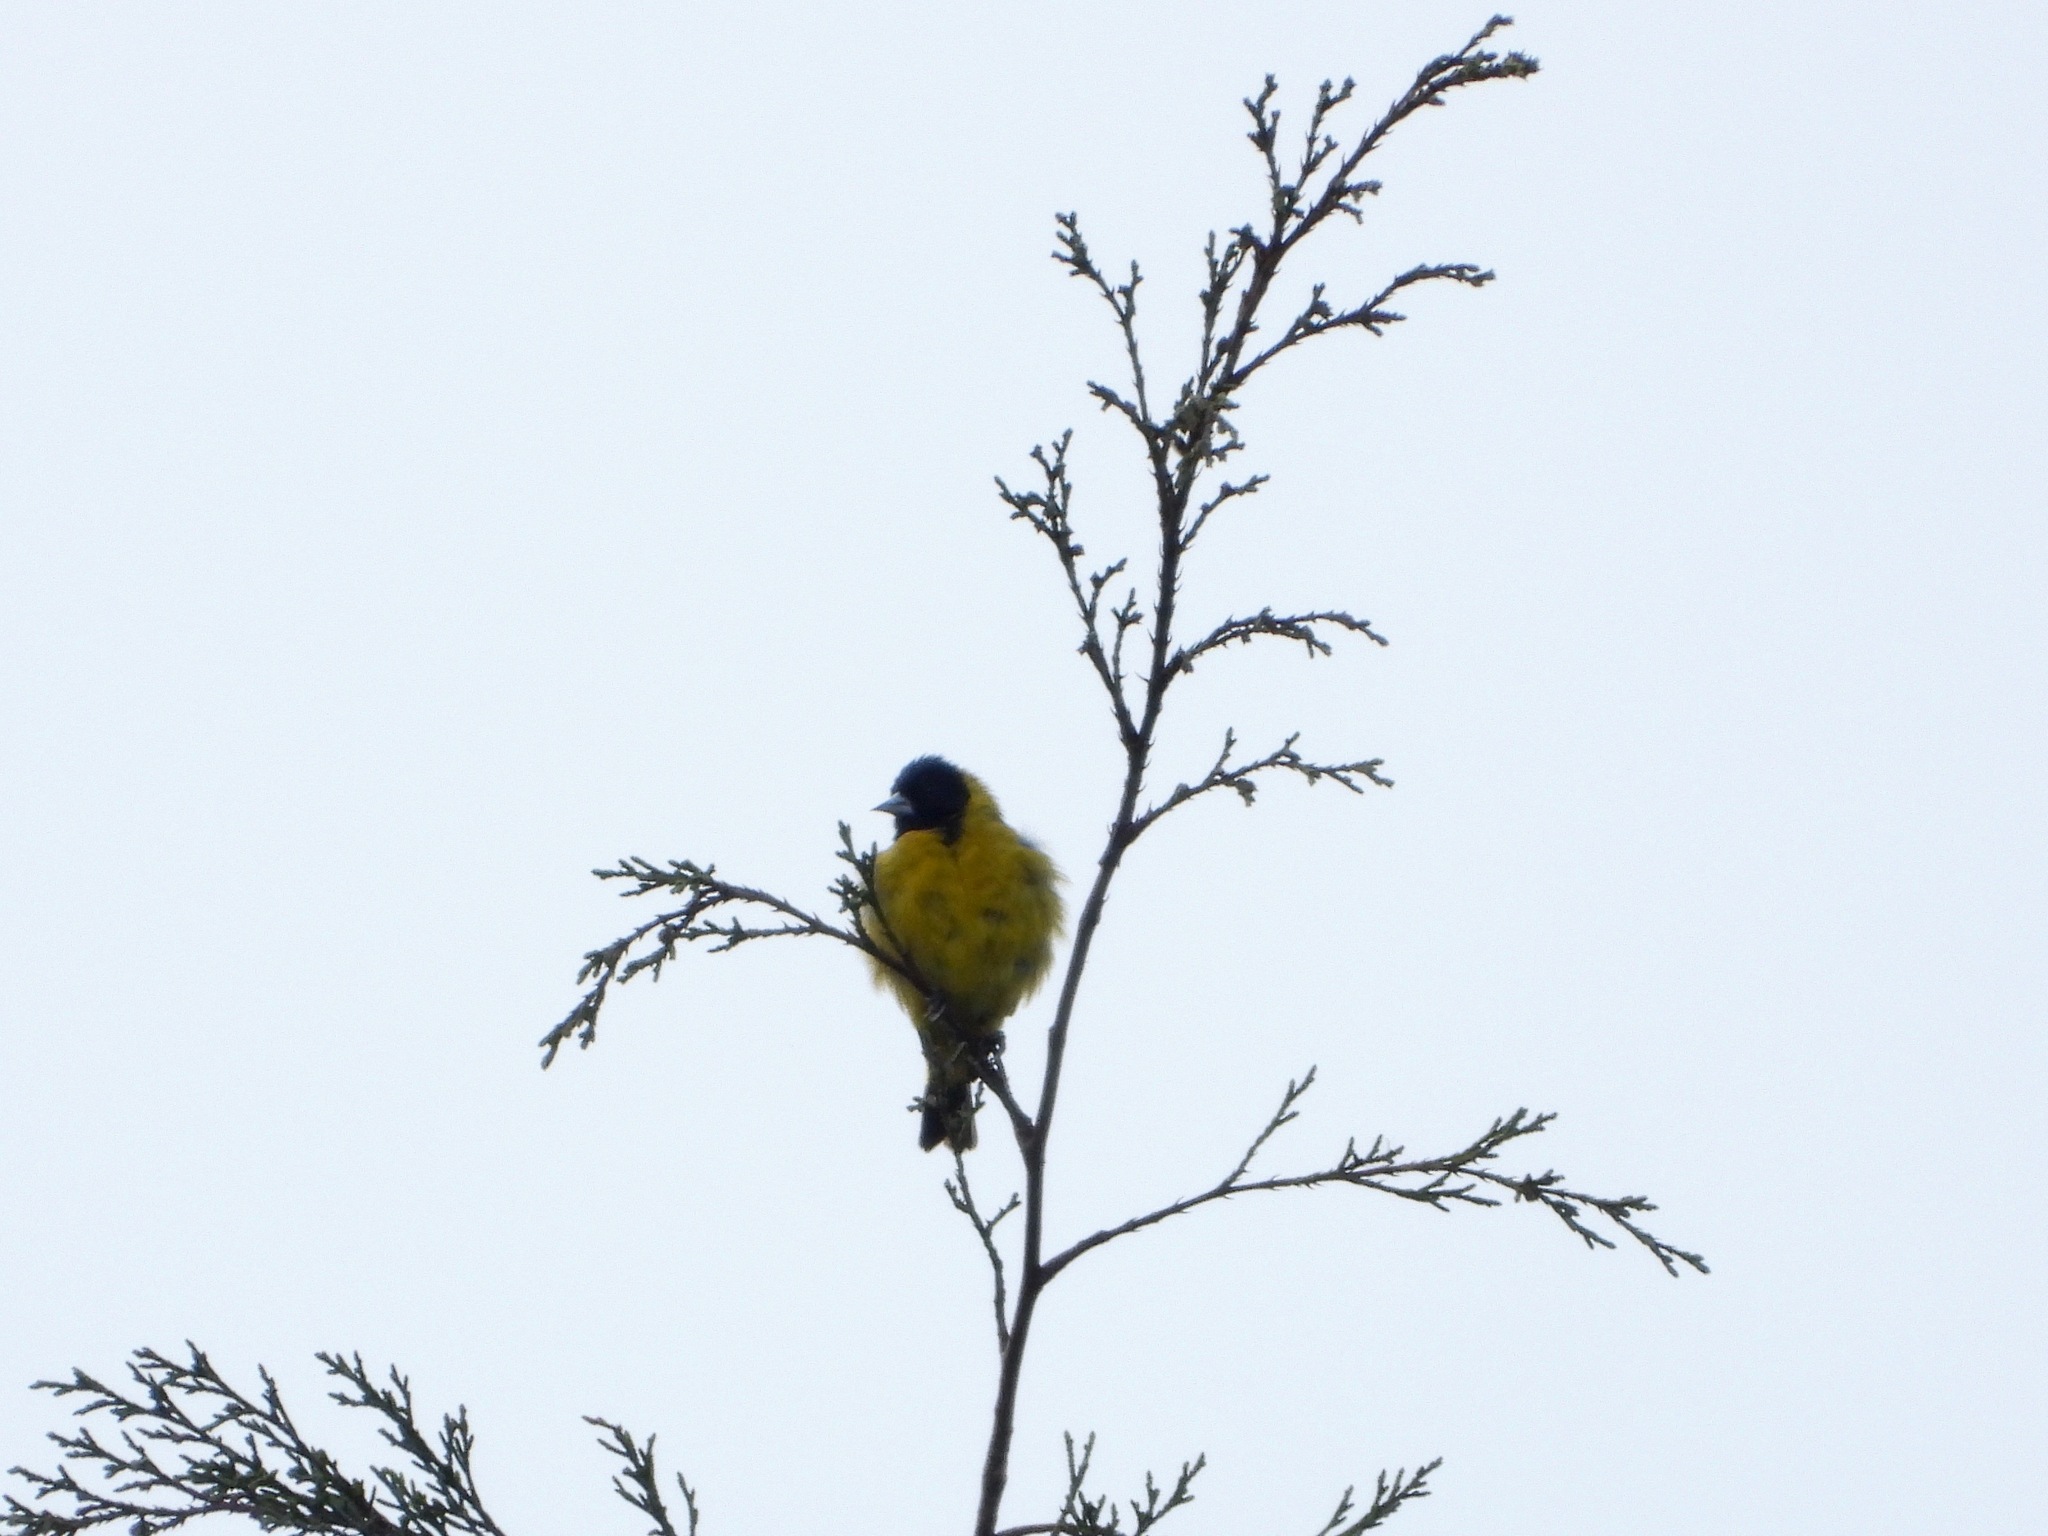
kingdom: Animalia
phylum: Chordata
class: Aves
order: Passeriformes
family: Fringillidae
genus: Spinus
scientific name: Spinus notatus
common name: Black-headed siskin
